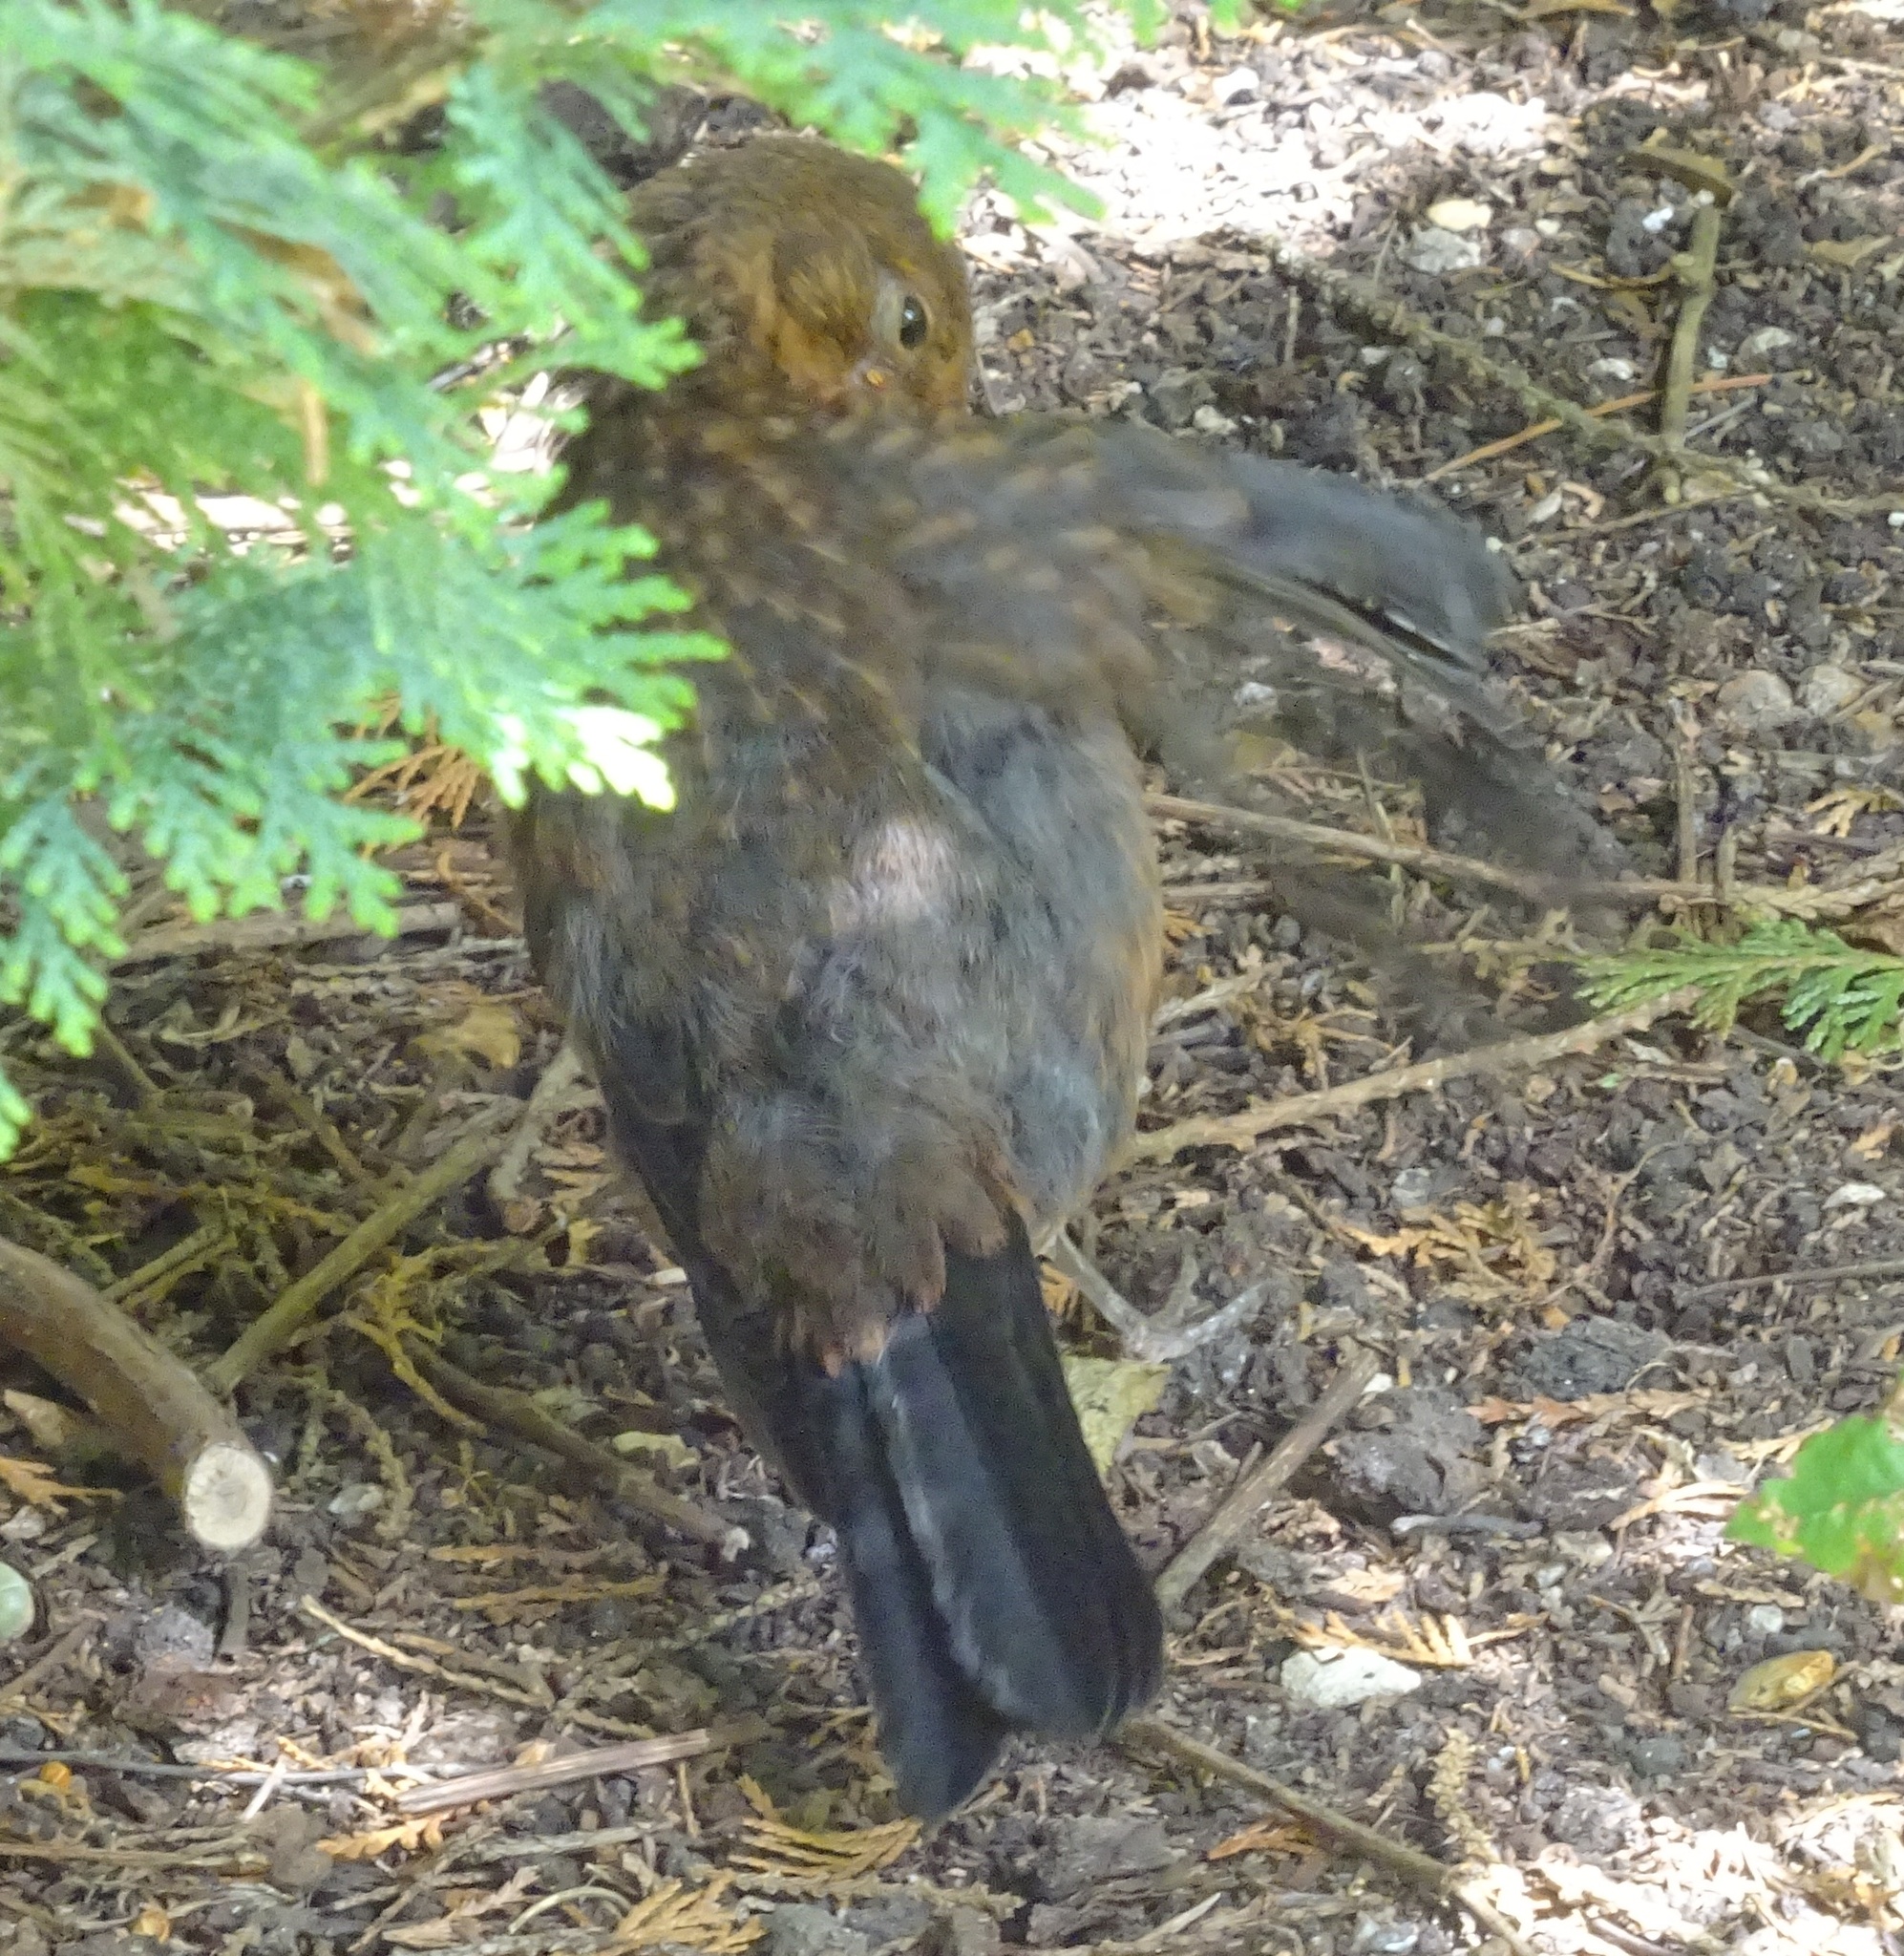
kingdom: Animalia
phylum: Chordata
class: Aves
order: Passeriformes
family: Turdidae
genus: Turdus
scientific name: Turdus merula
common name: Common blackbird
